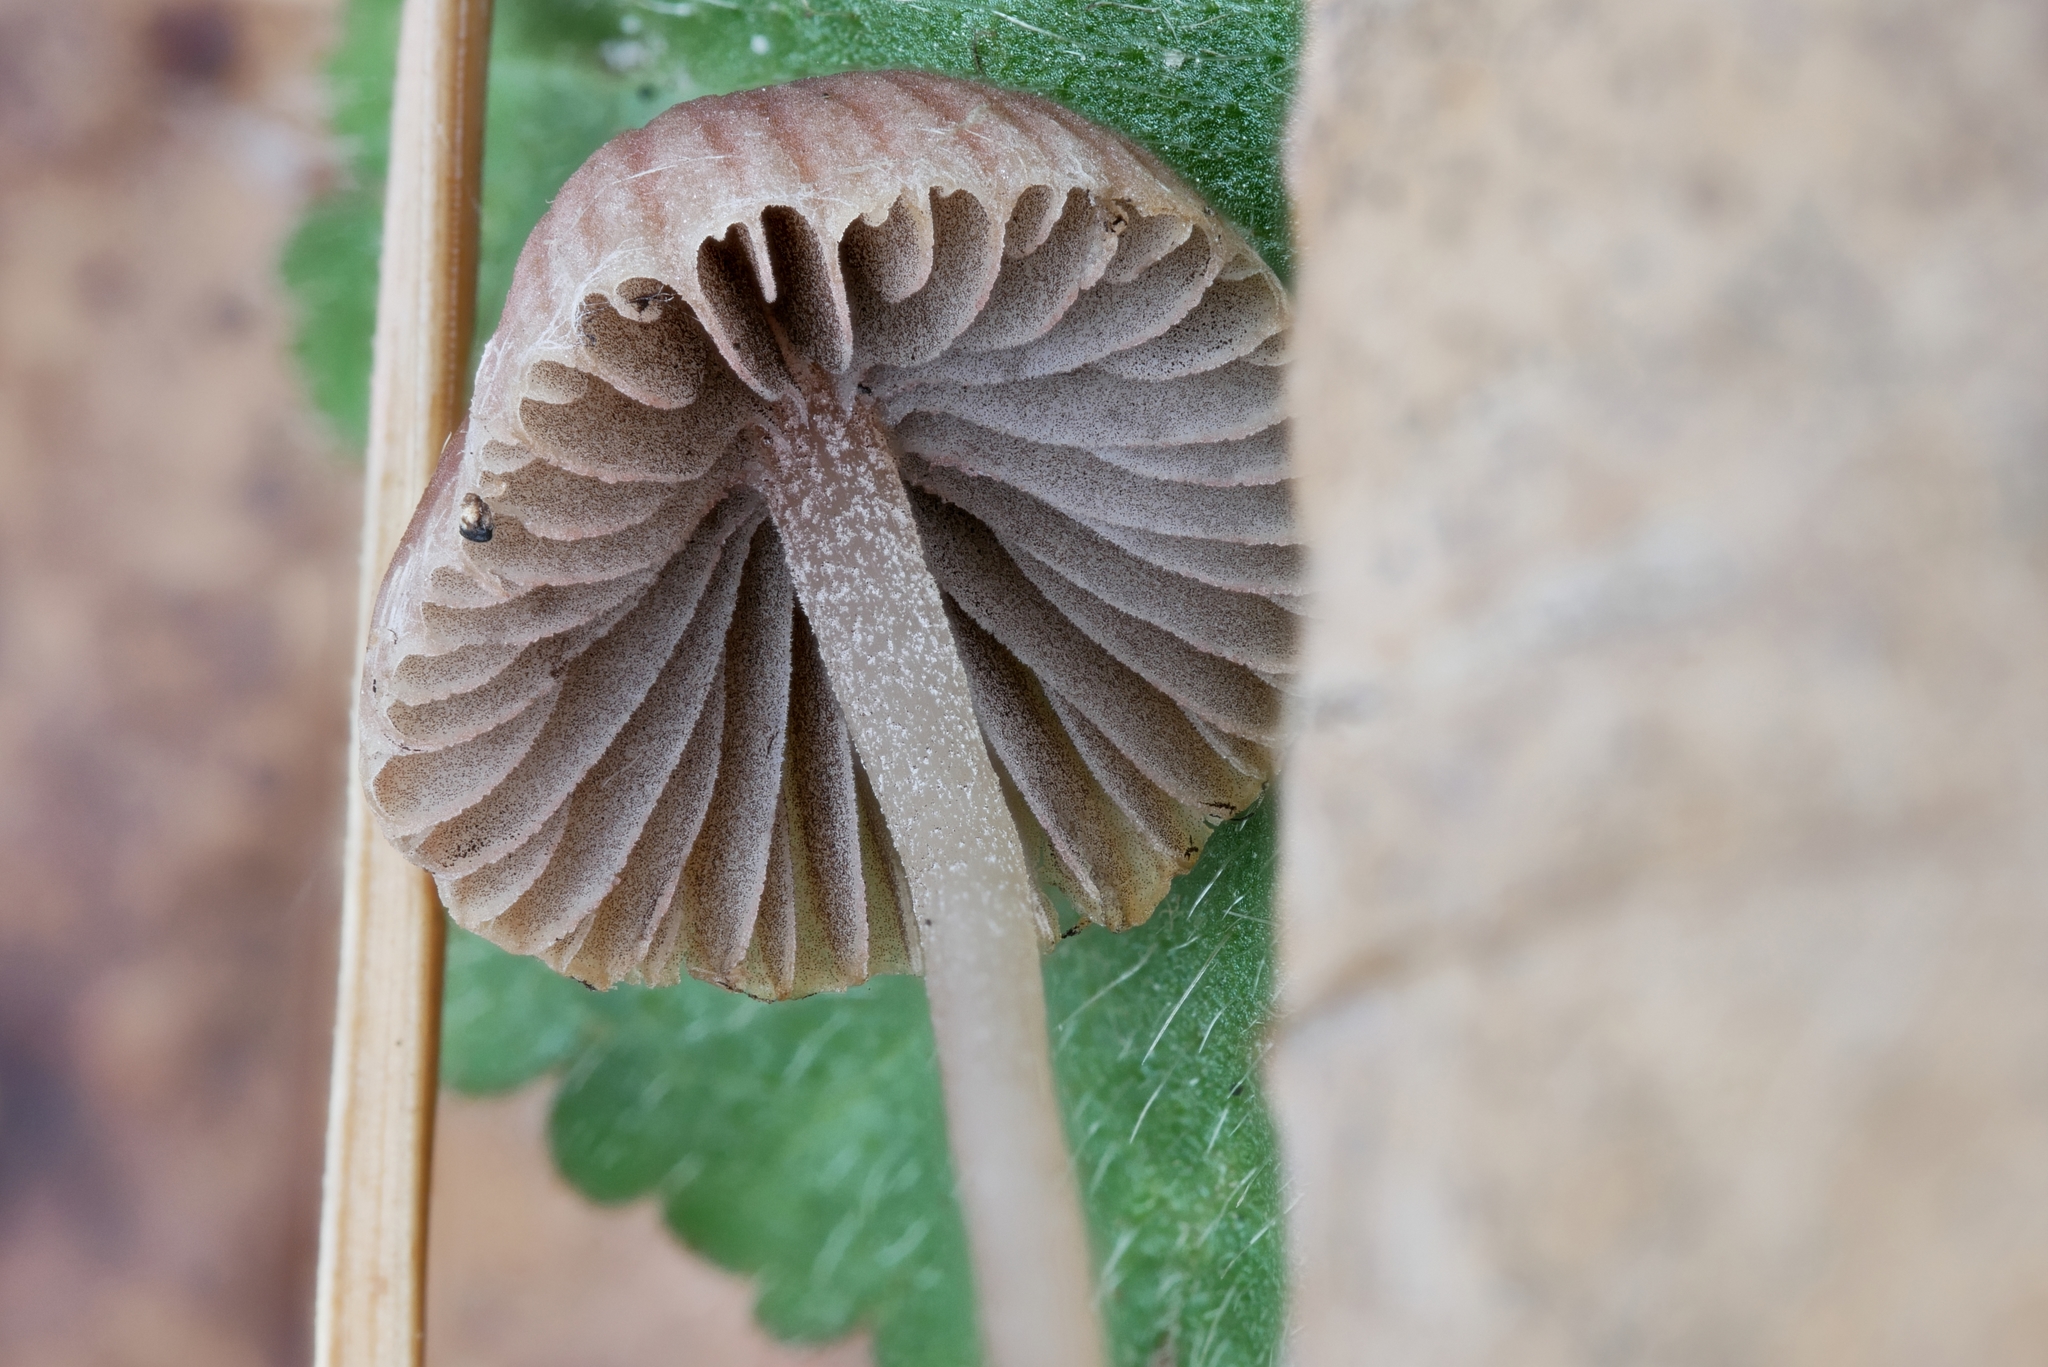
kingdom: Fungi
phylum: Basidiomycota
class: Agaricomycetes
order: Agaricales
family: Psathyrellaceae
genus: Psathyrella
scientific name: Psathyrella orbitarum
